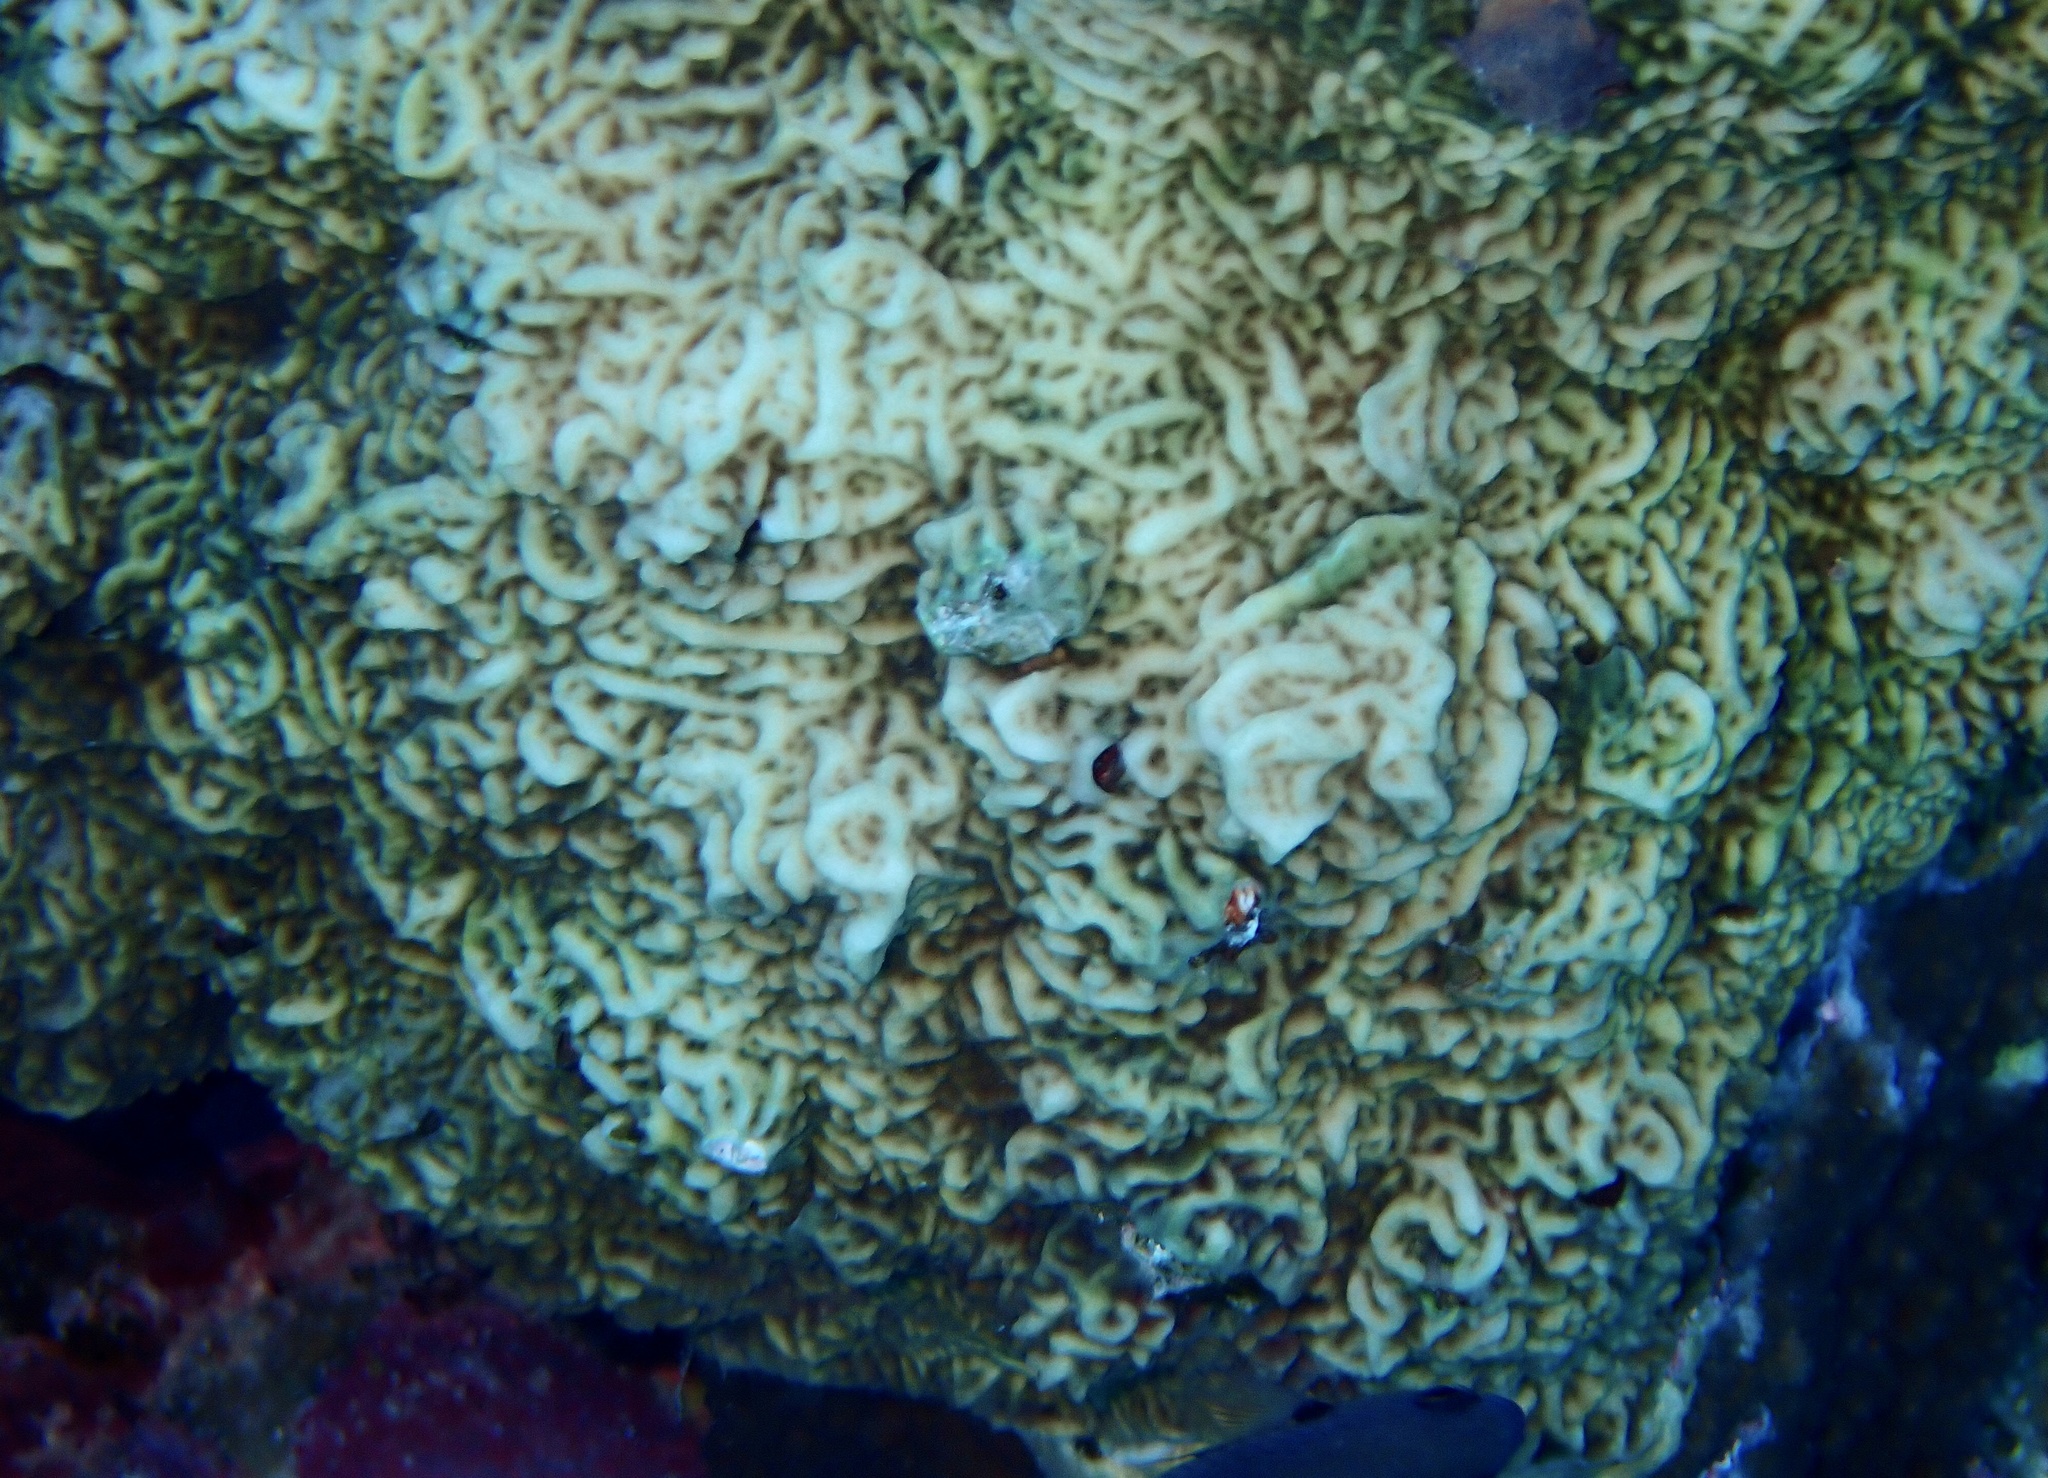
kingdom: Animalia
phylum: Cnidaria
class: Anthozoa
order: Scleractinia
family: Agariciidae
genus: Pavona
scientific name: Pavona varians
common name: Leaf coral
